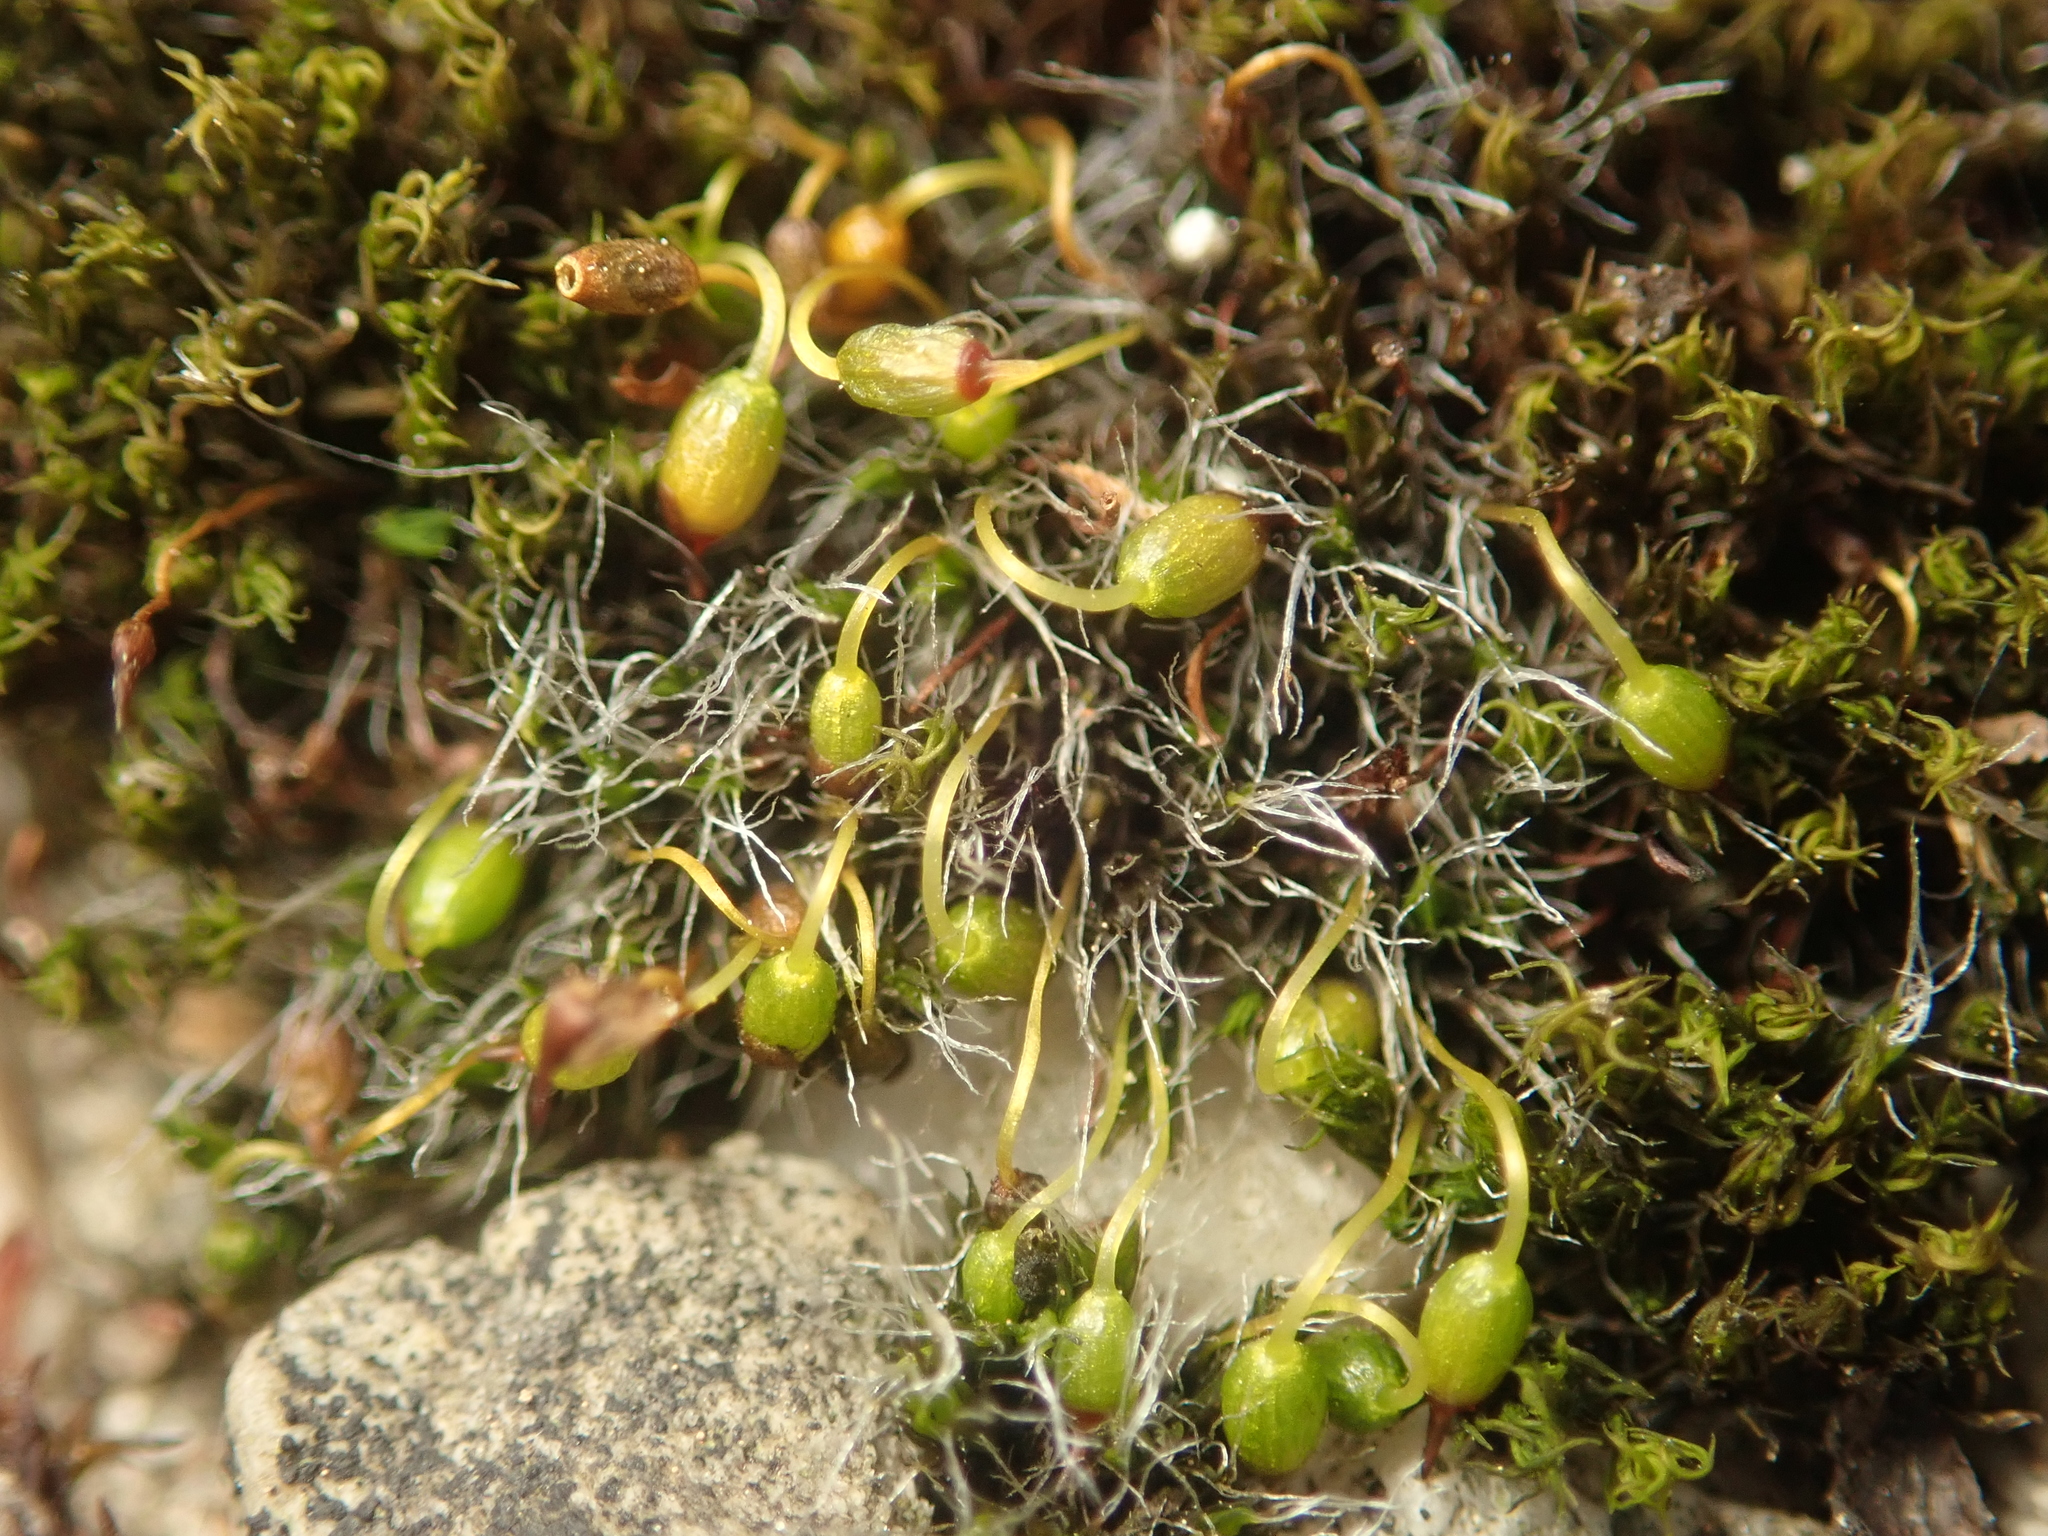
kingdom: Plantae
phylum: Bryophyta
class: Bryopsida
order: Grimmiales
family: Grimmiaceae
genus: Grimmia
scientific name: Grimmia pulvinata
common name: Grey-cushioned grimmia
